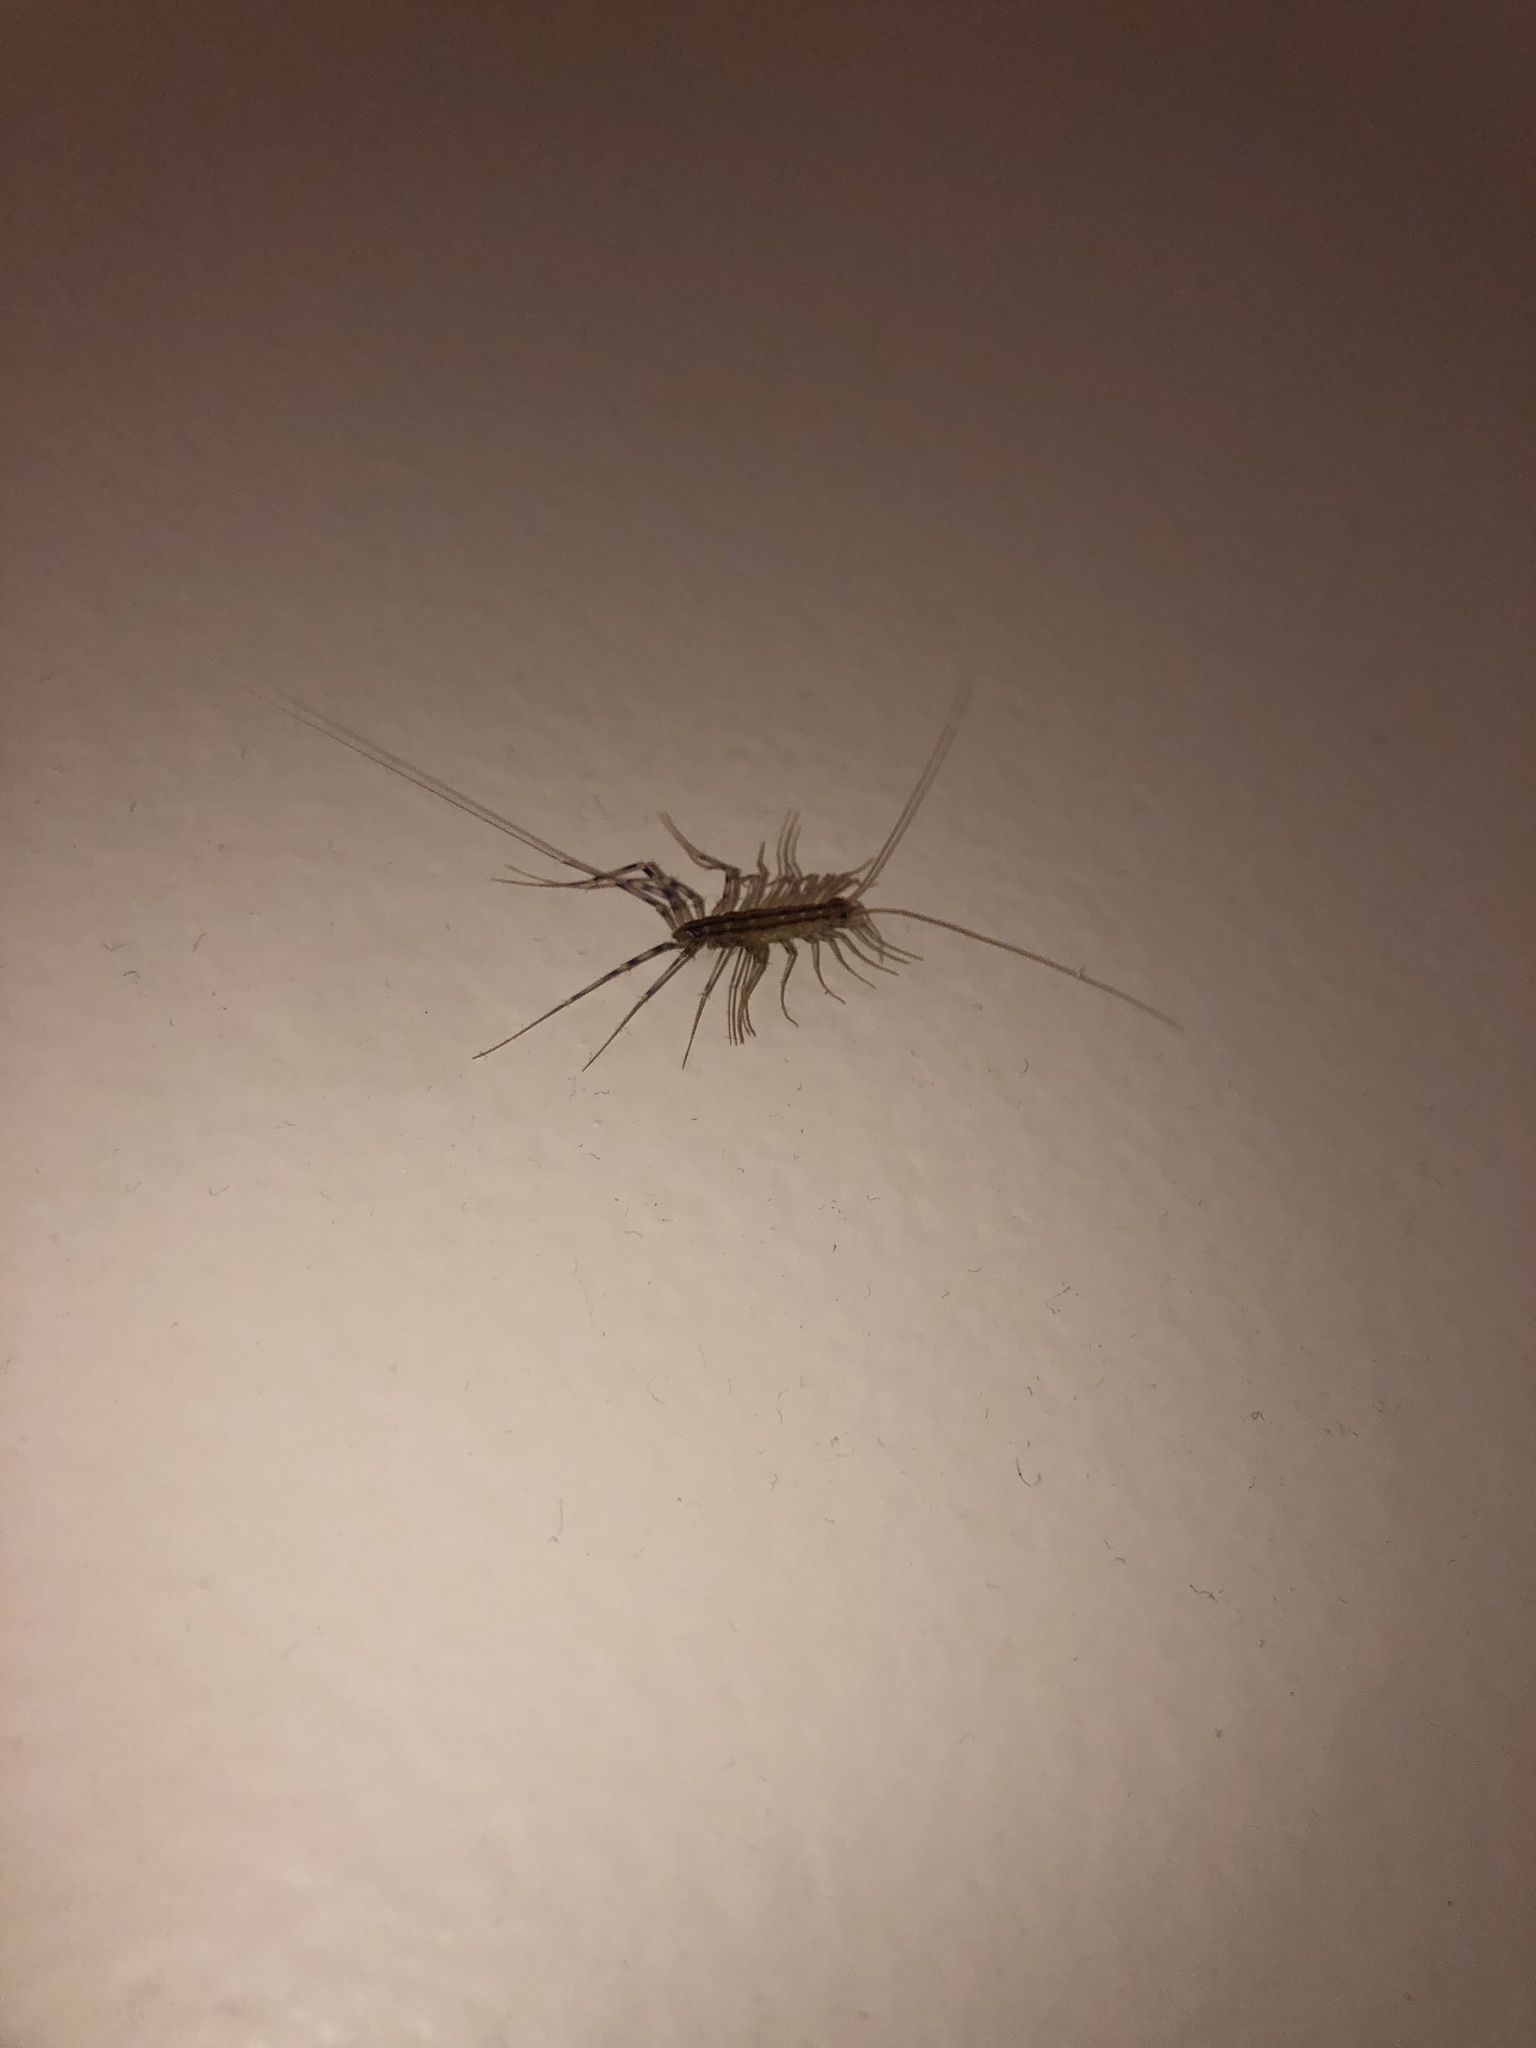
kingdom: Animalia
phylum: Arthropoda
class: Chilopoda
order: Scutigeromorpha
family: Scutigeridae
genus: Scutigera
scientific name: Scutigera coleoptrata
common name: House centipede
